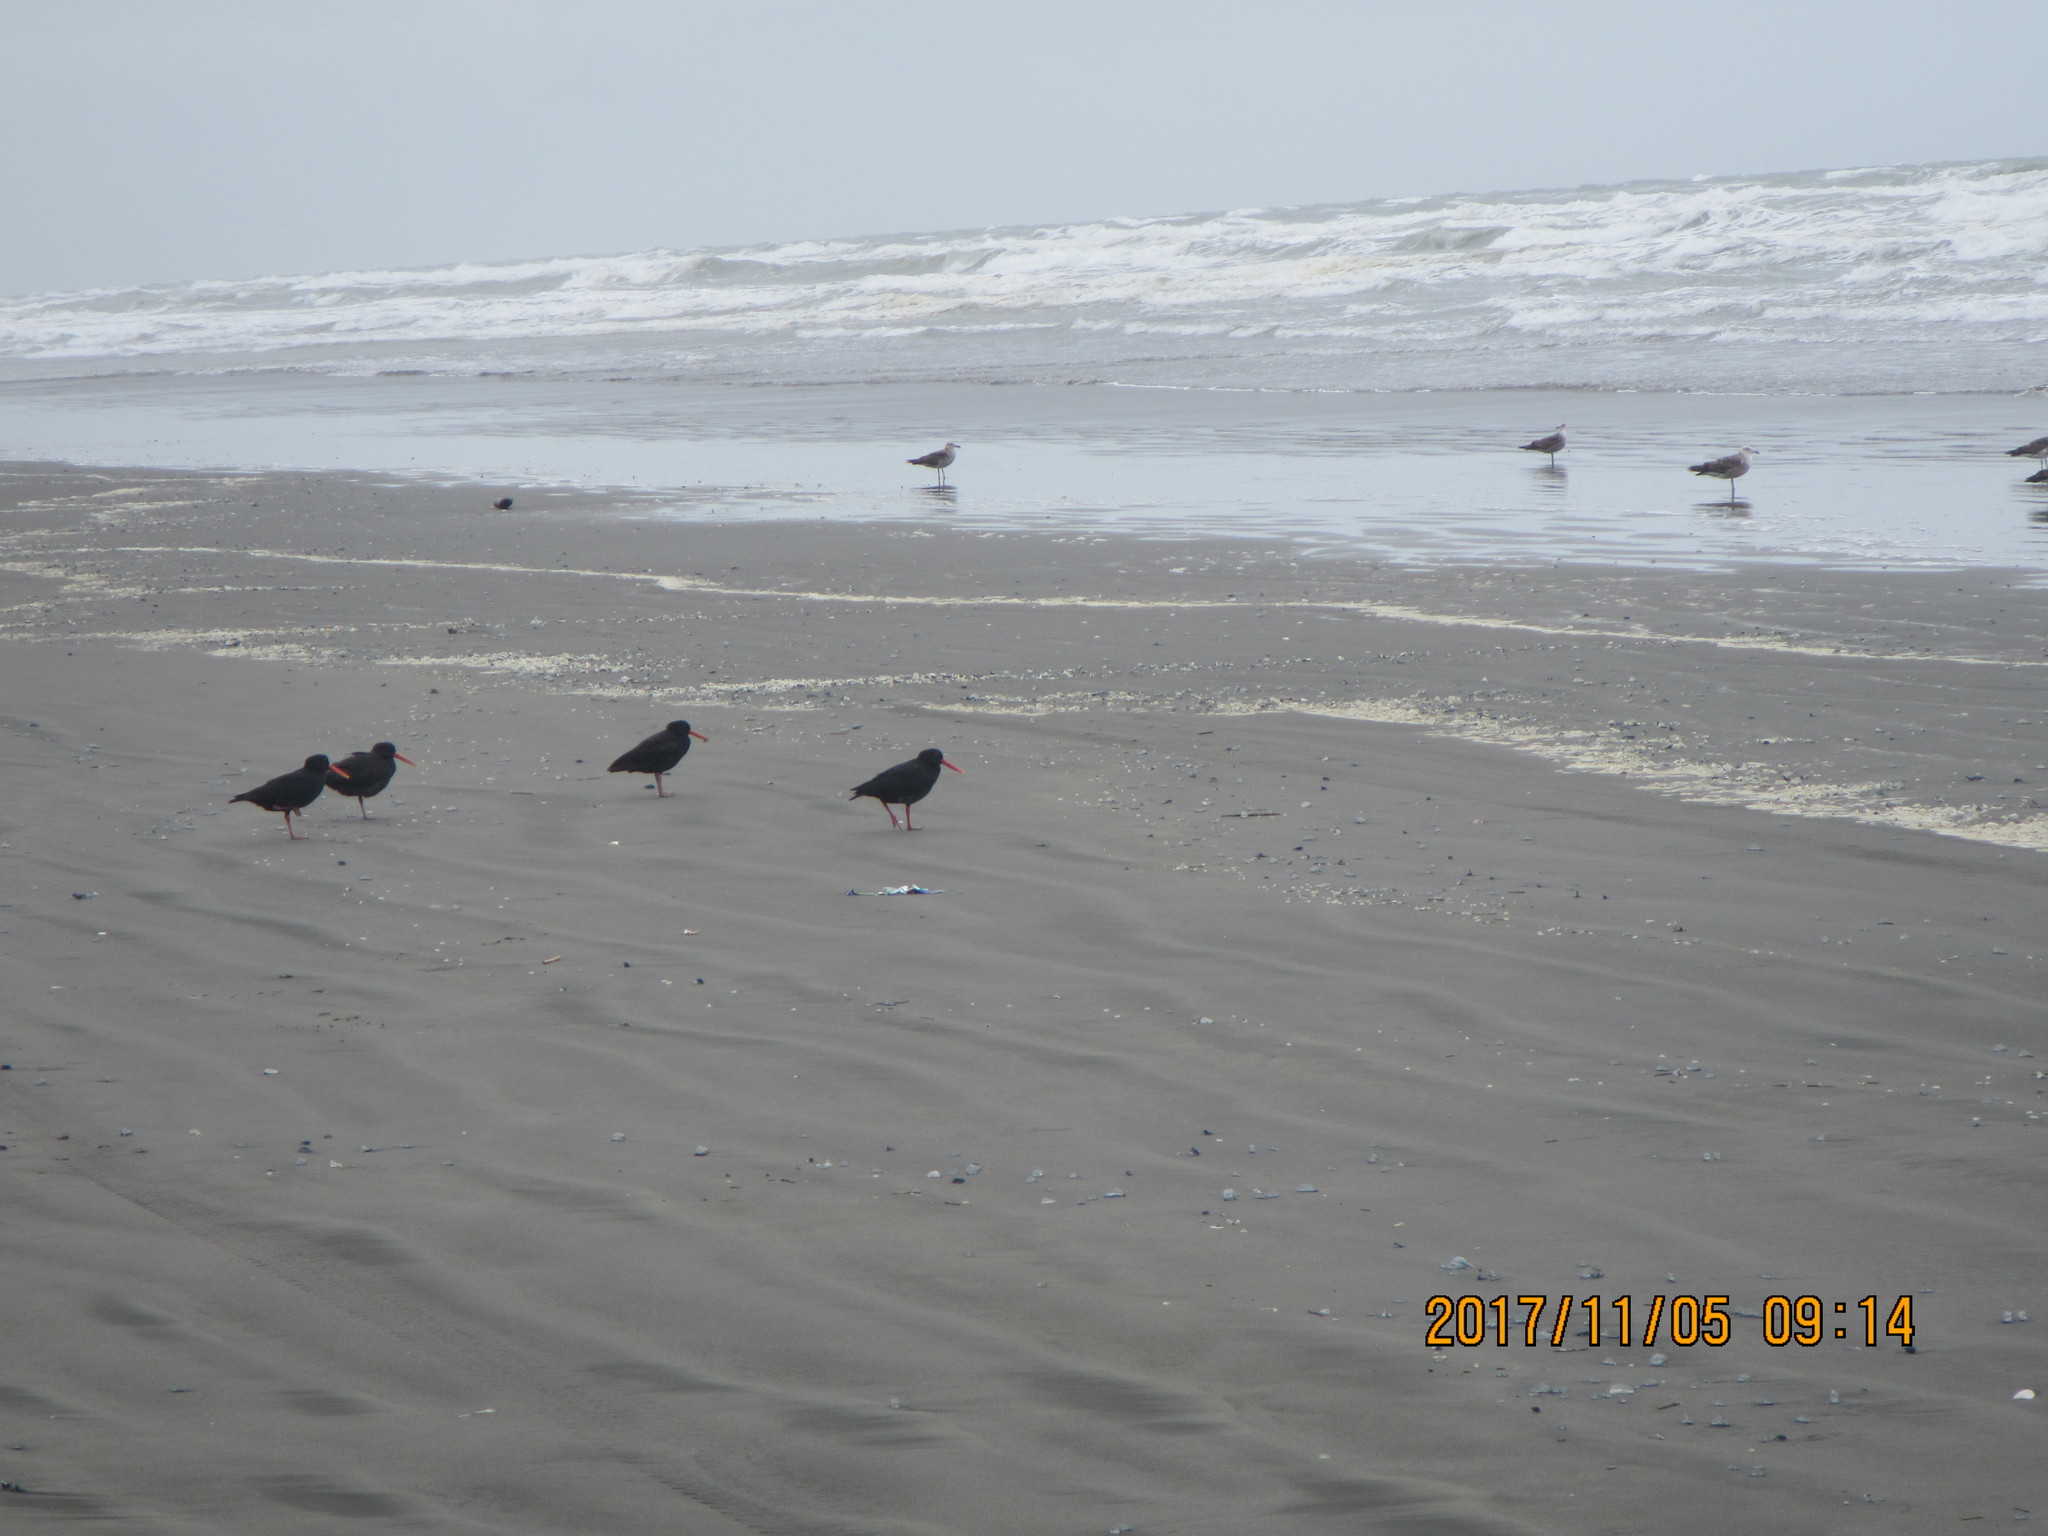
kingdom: Animalia
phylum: Chordata
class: Aves
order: Charadriiformes
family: Haematopodidae
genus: Haematopus
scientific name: Haematopus unicolor
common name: Variable oystercatcher
